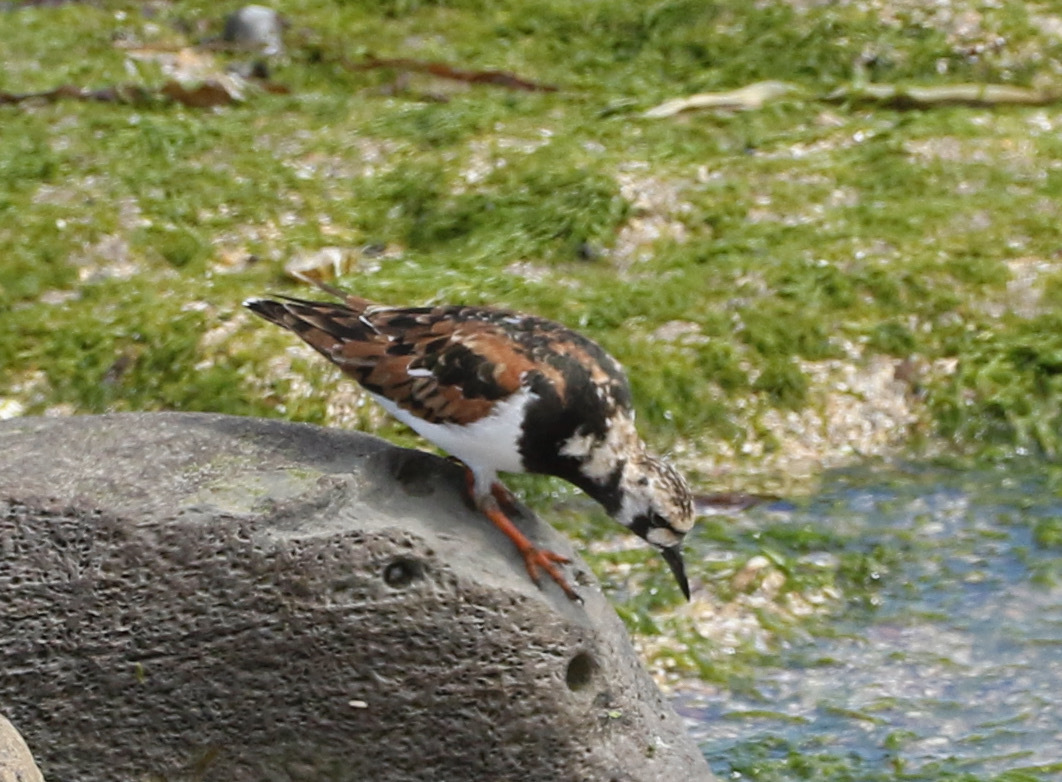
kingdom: Animalia
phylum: Chordata
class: Aves
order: Charadriiformes
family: Scolopacidae
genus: Arenaria
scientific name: Arenaria interpres
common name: Ruddy turnstone
